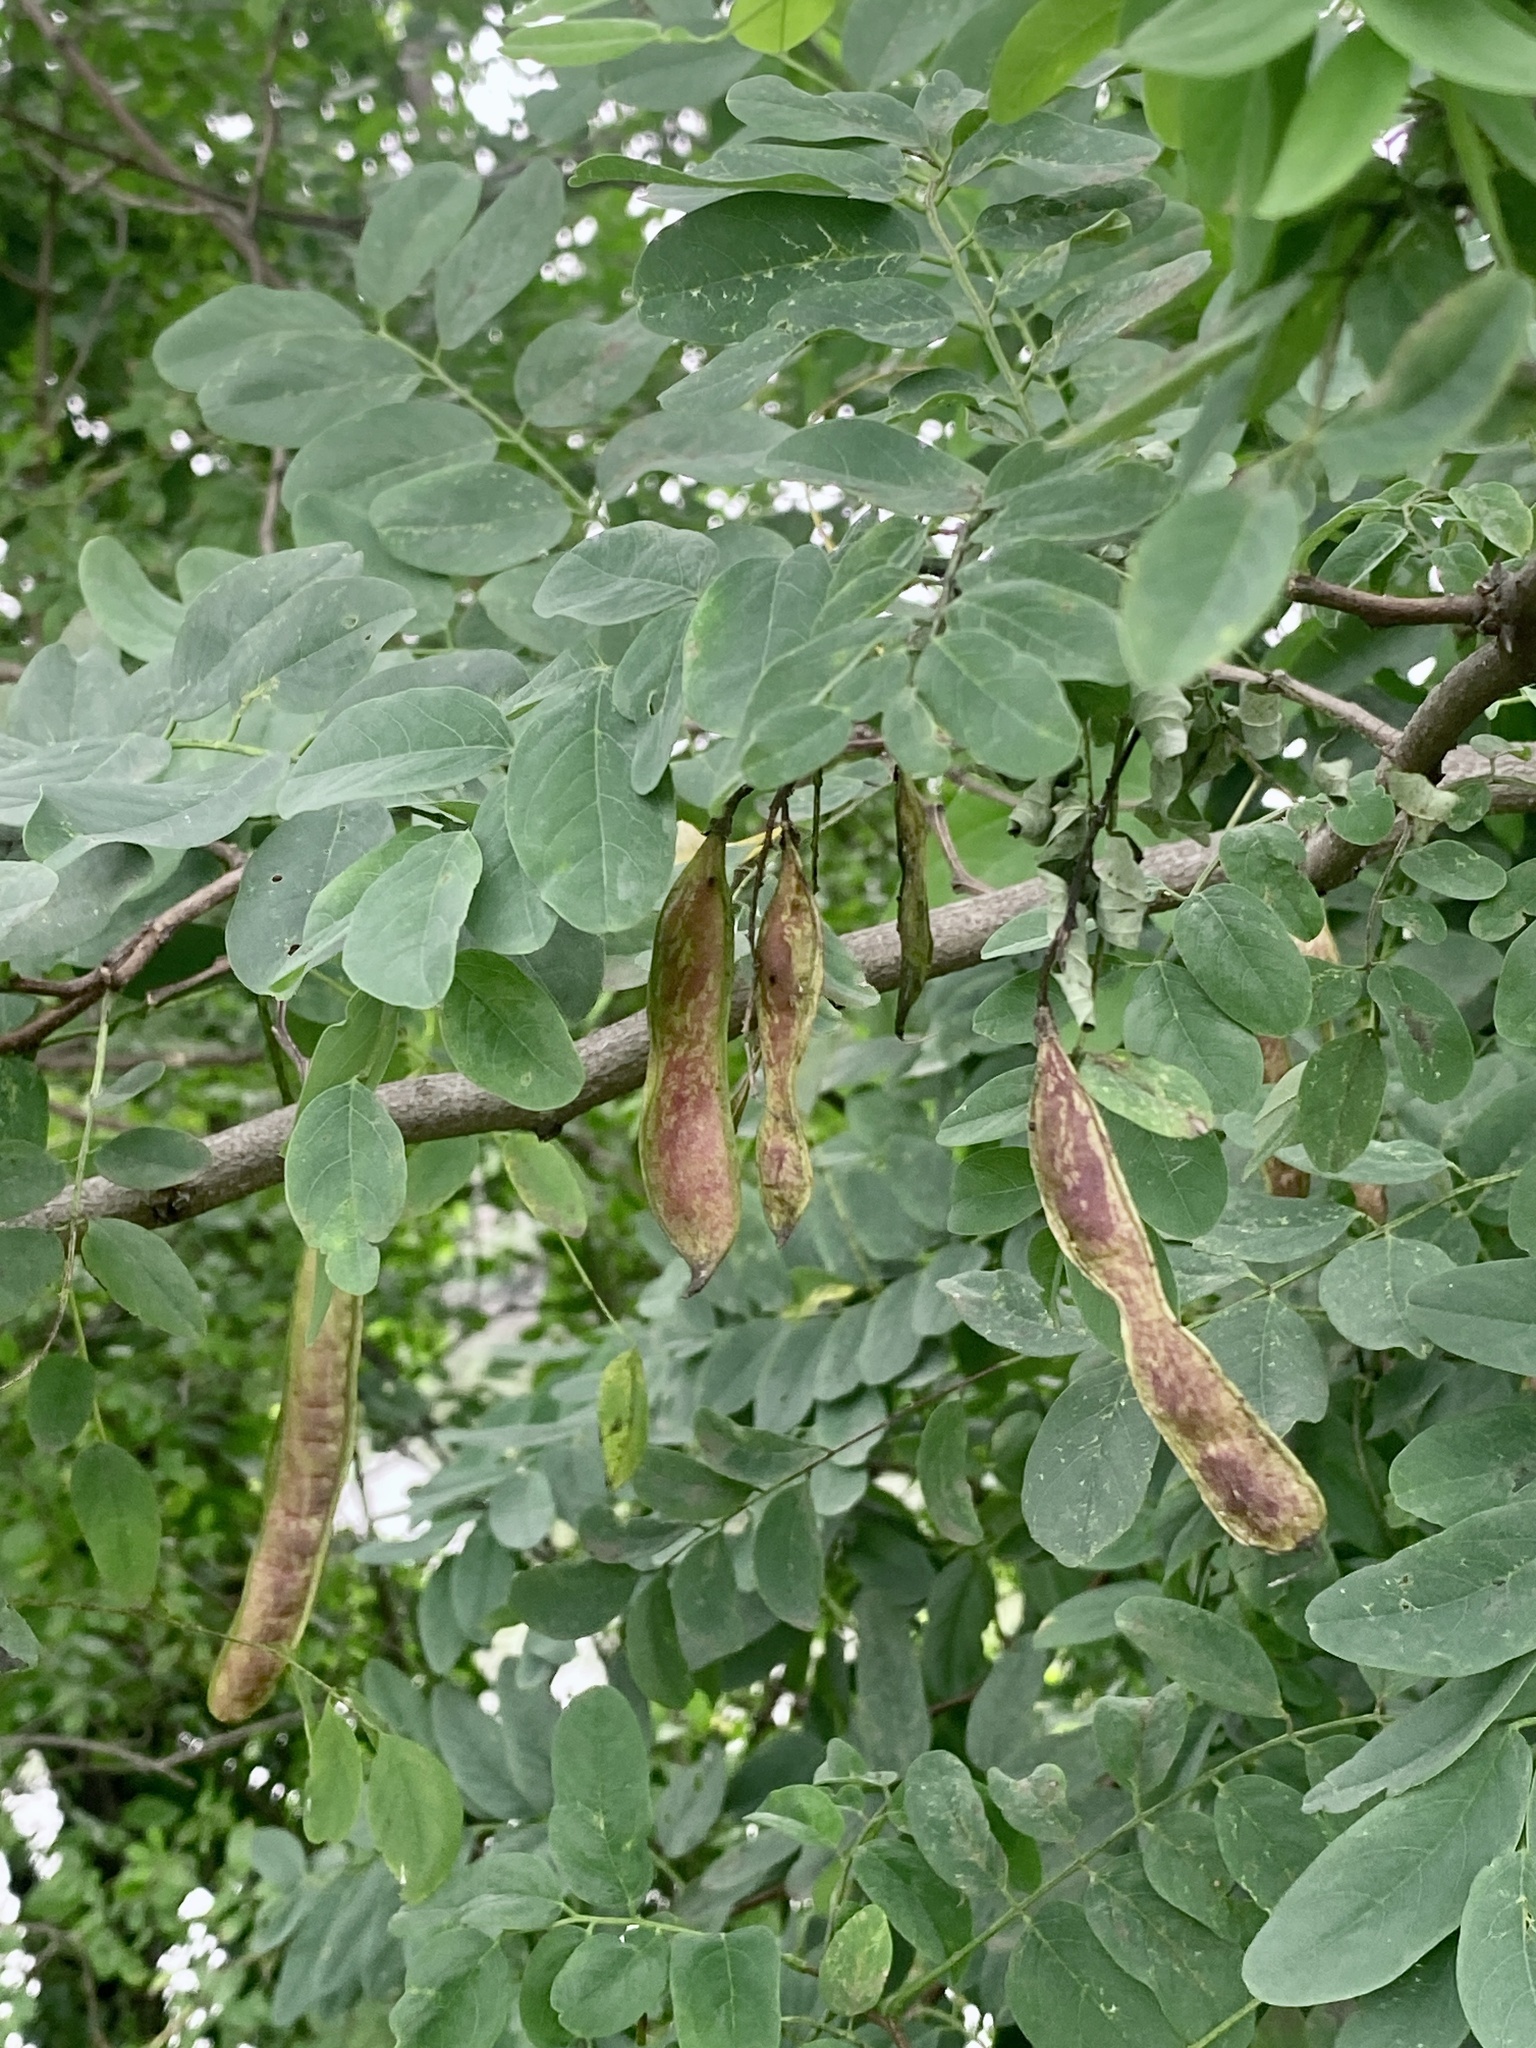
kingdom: Plantae
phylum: Tracheophyta
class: Magnoliopsida
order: Fabales
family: Fabaceae
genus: Robinia
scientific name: Robinia pseudoacacia
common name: Black locust
